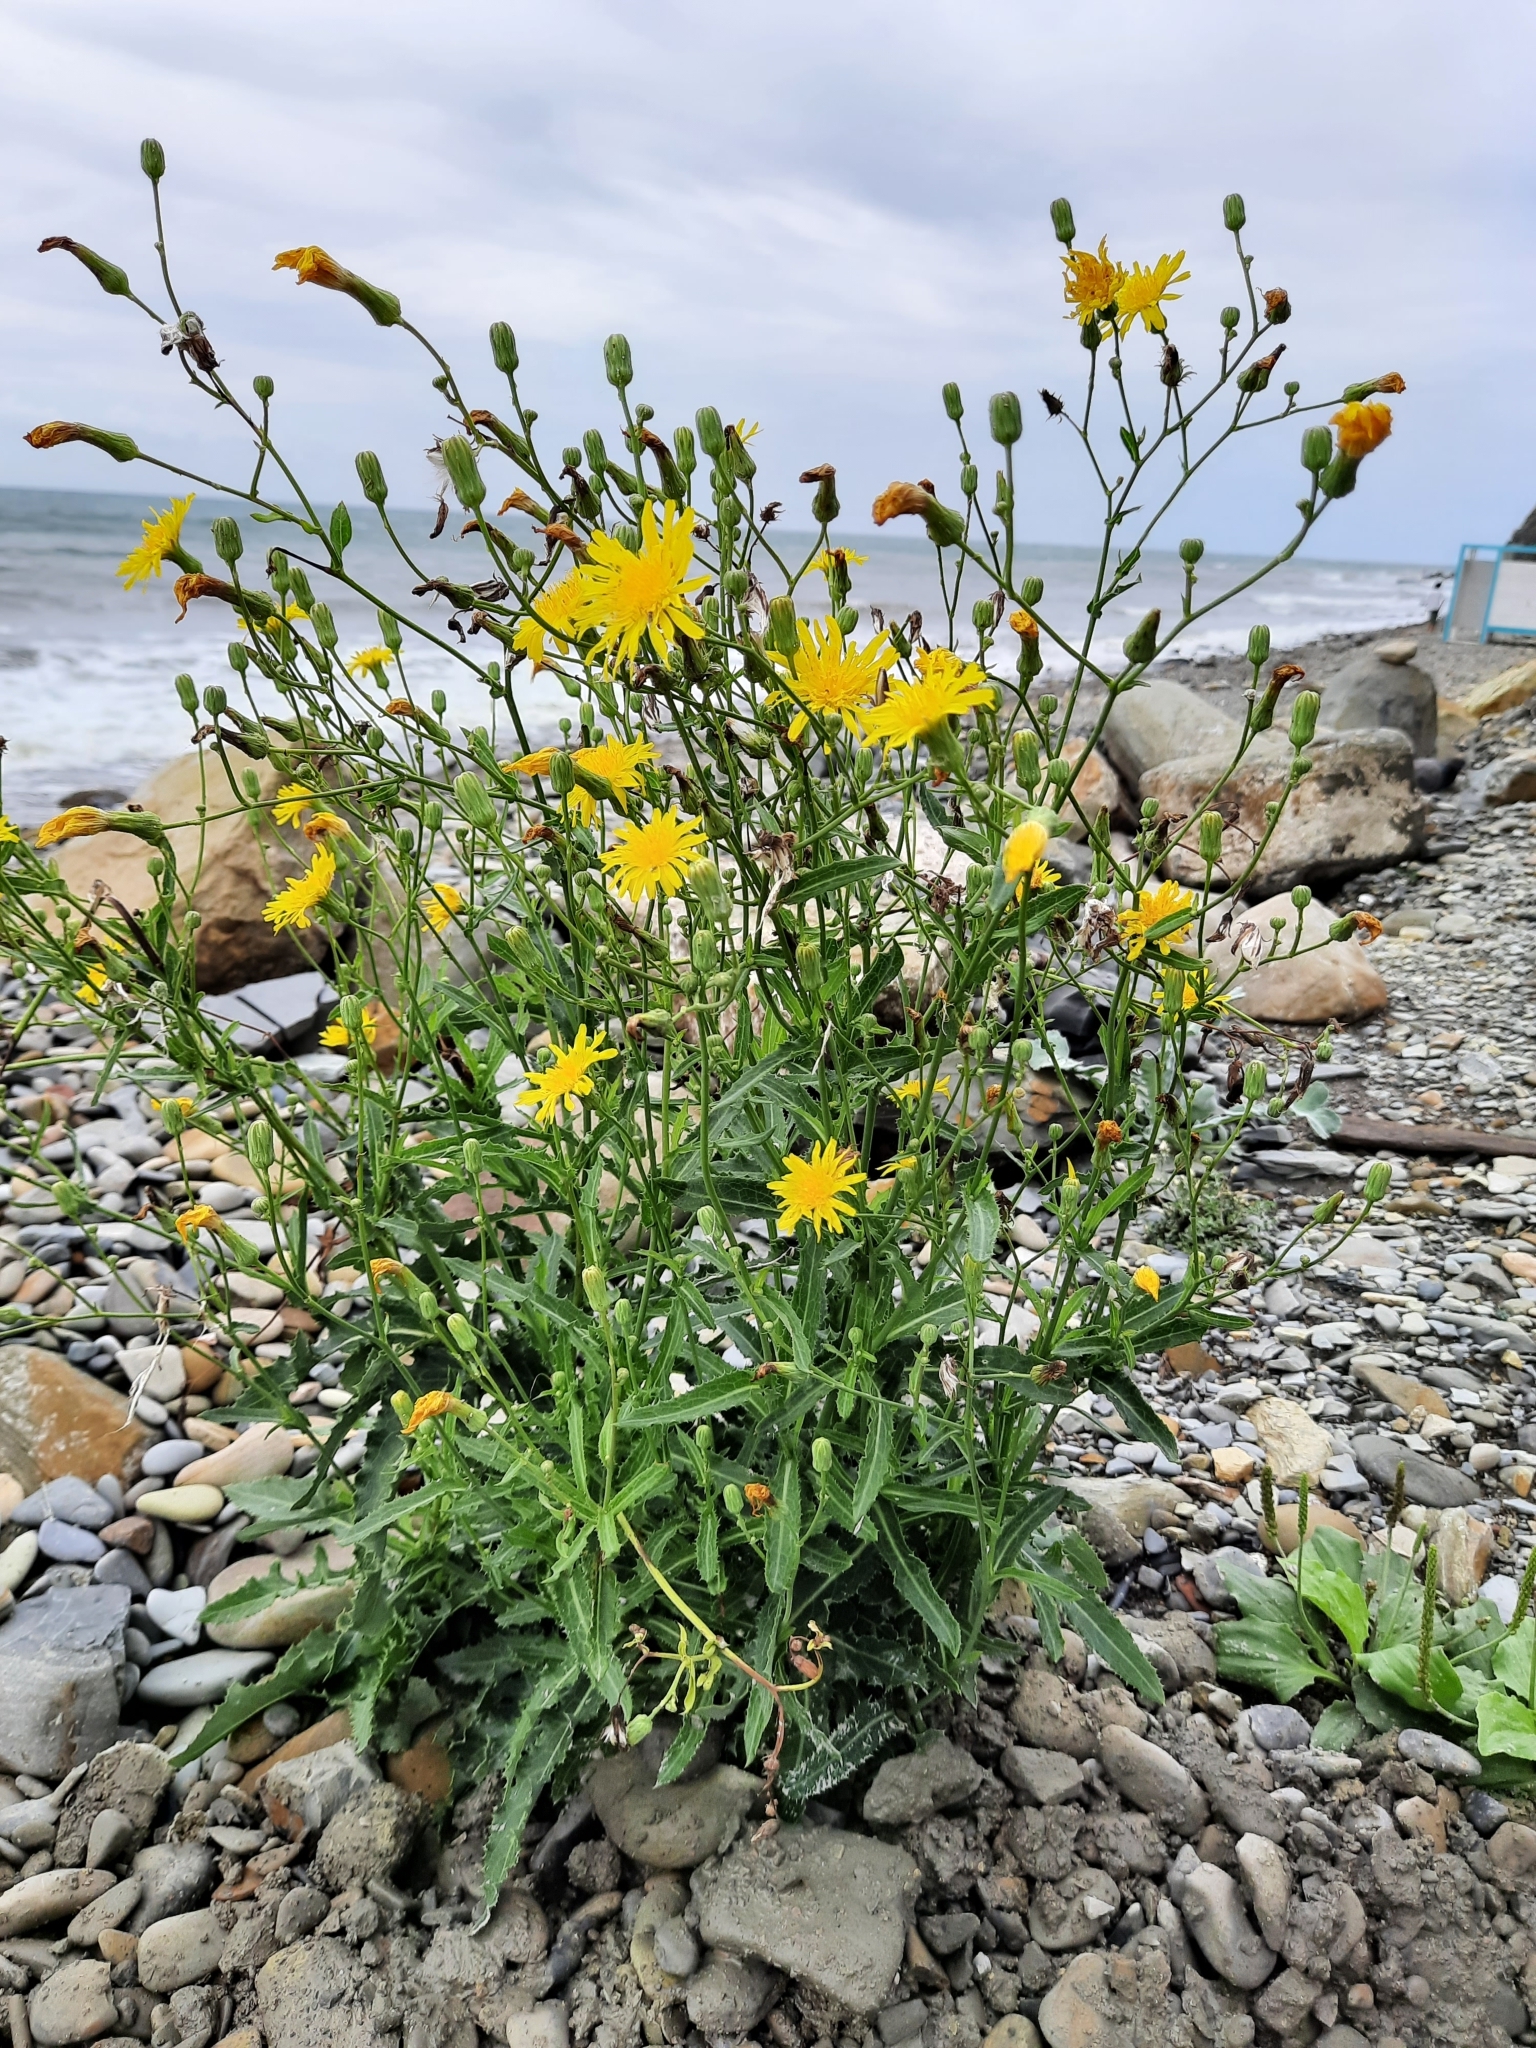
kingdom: Plantae
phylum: Tracheophyta
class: Magnoliopsida
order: Asterales
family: Asteraceae
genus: Sonchus
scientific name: Sonchus arvensis
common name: Perennial sow-thistle
